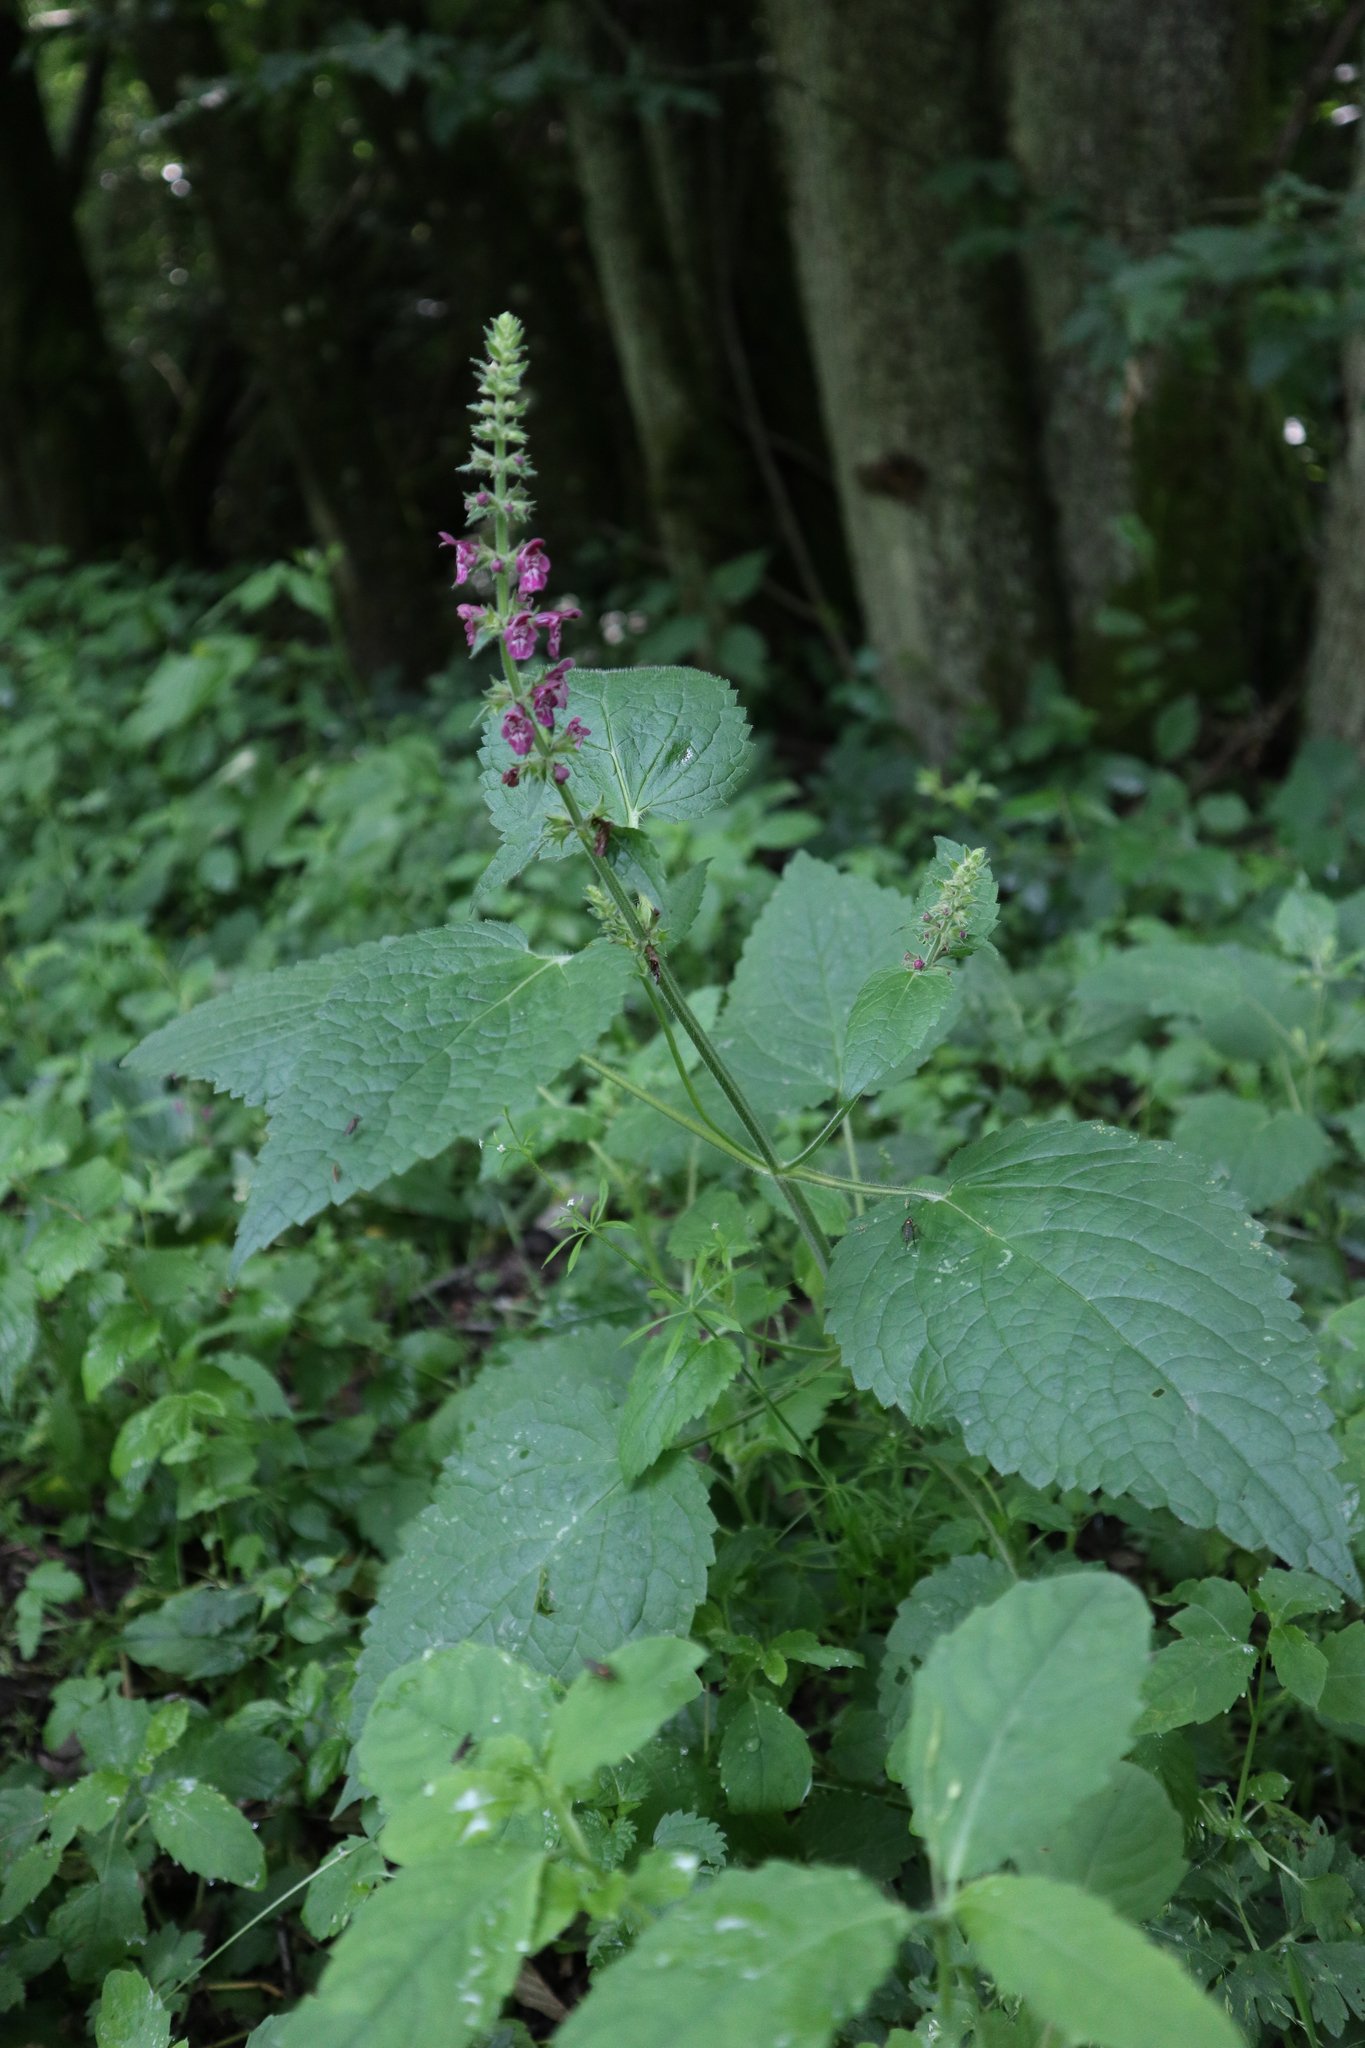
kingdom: Plantae
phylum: Tracheophyta
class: Magnoliopsida
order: Lamiales
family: Lamiaceae
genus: Stachys
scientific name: Stachys sylvatica
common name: Hedge woundwort
